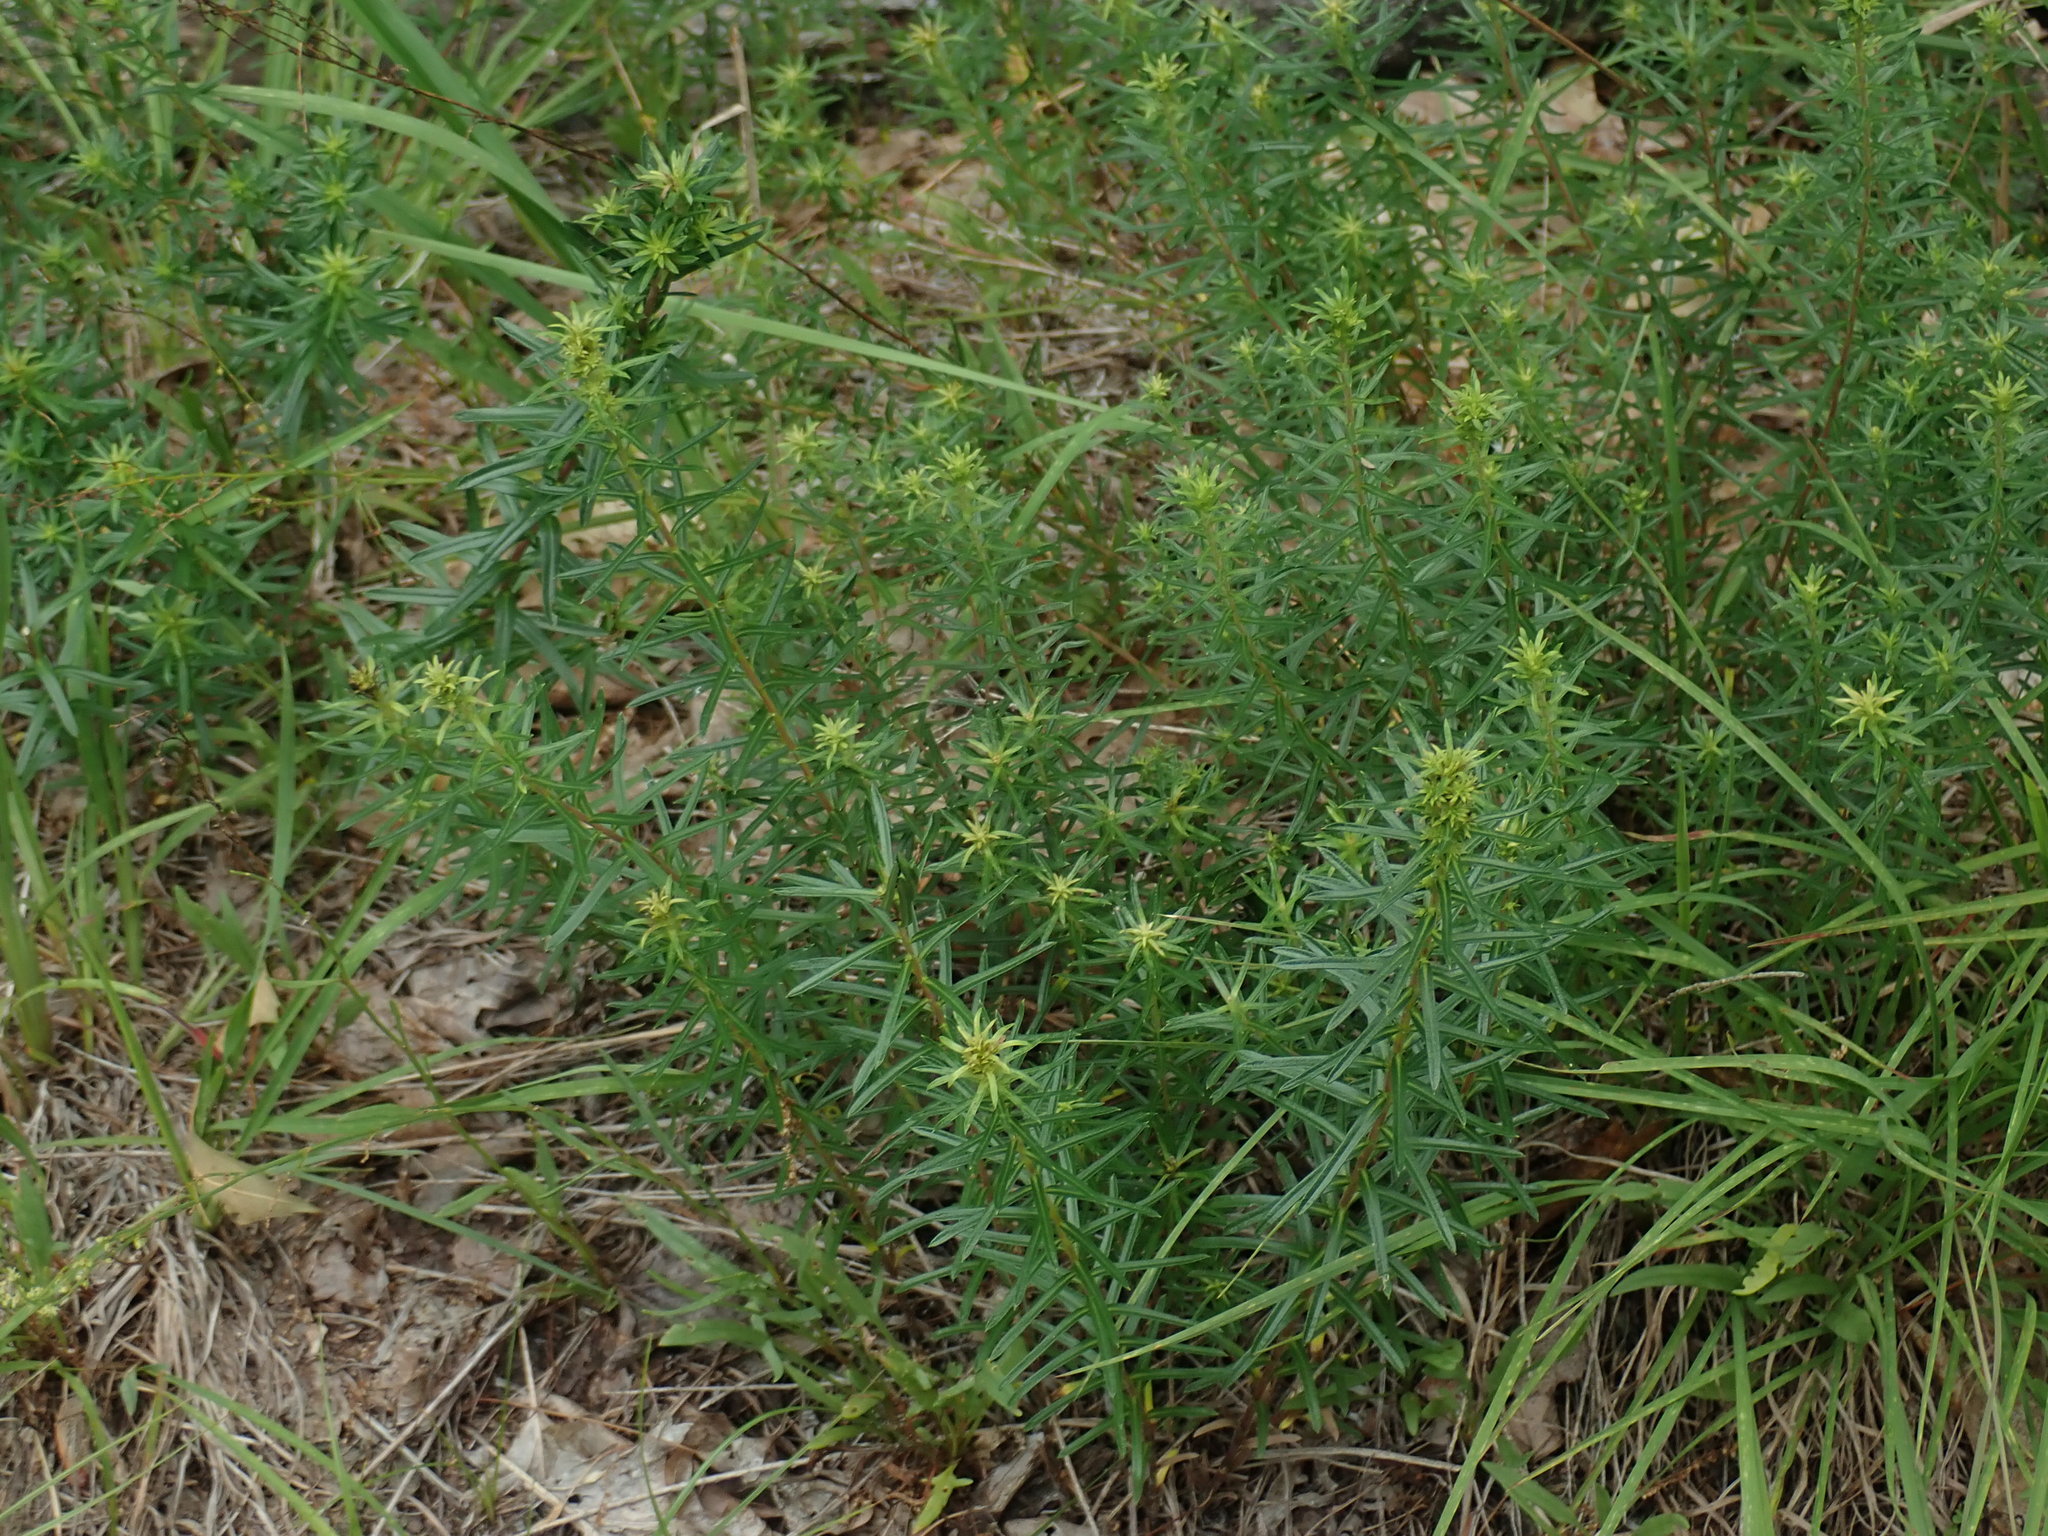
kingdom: Plantae
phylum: Tracheophyta
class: Magnoliopsida
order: Asterales
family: Asteraceae
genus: Ionactis
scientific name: Ionactis linariifolia
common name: Flax-leaf aster
